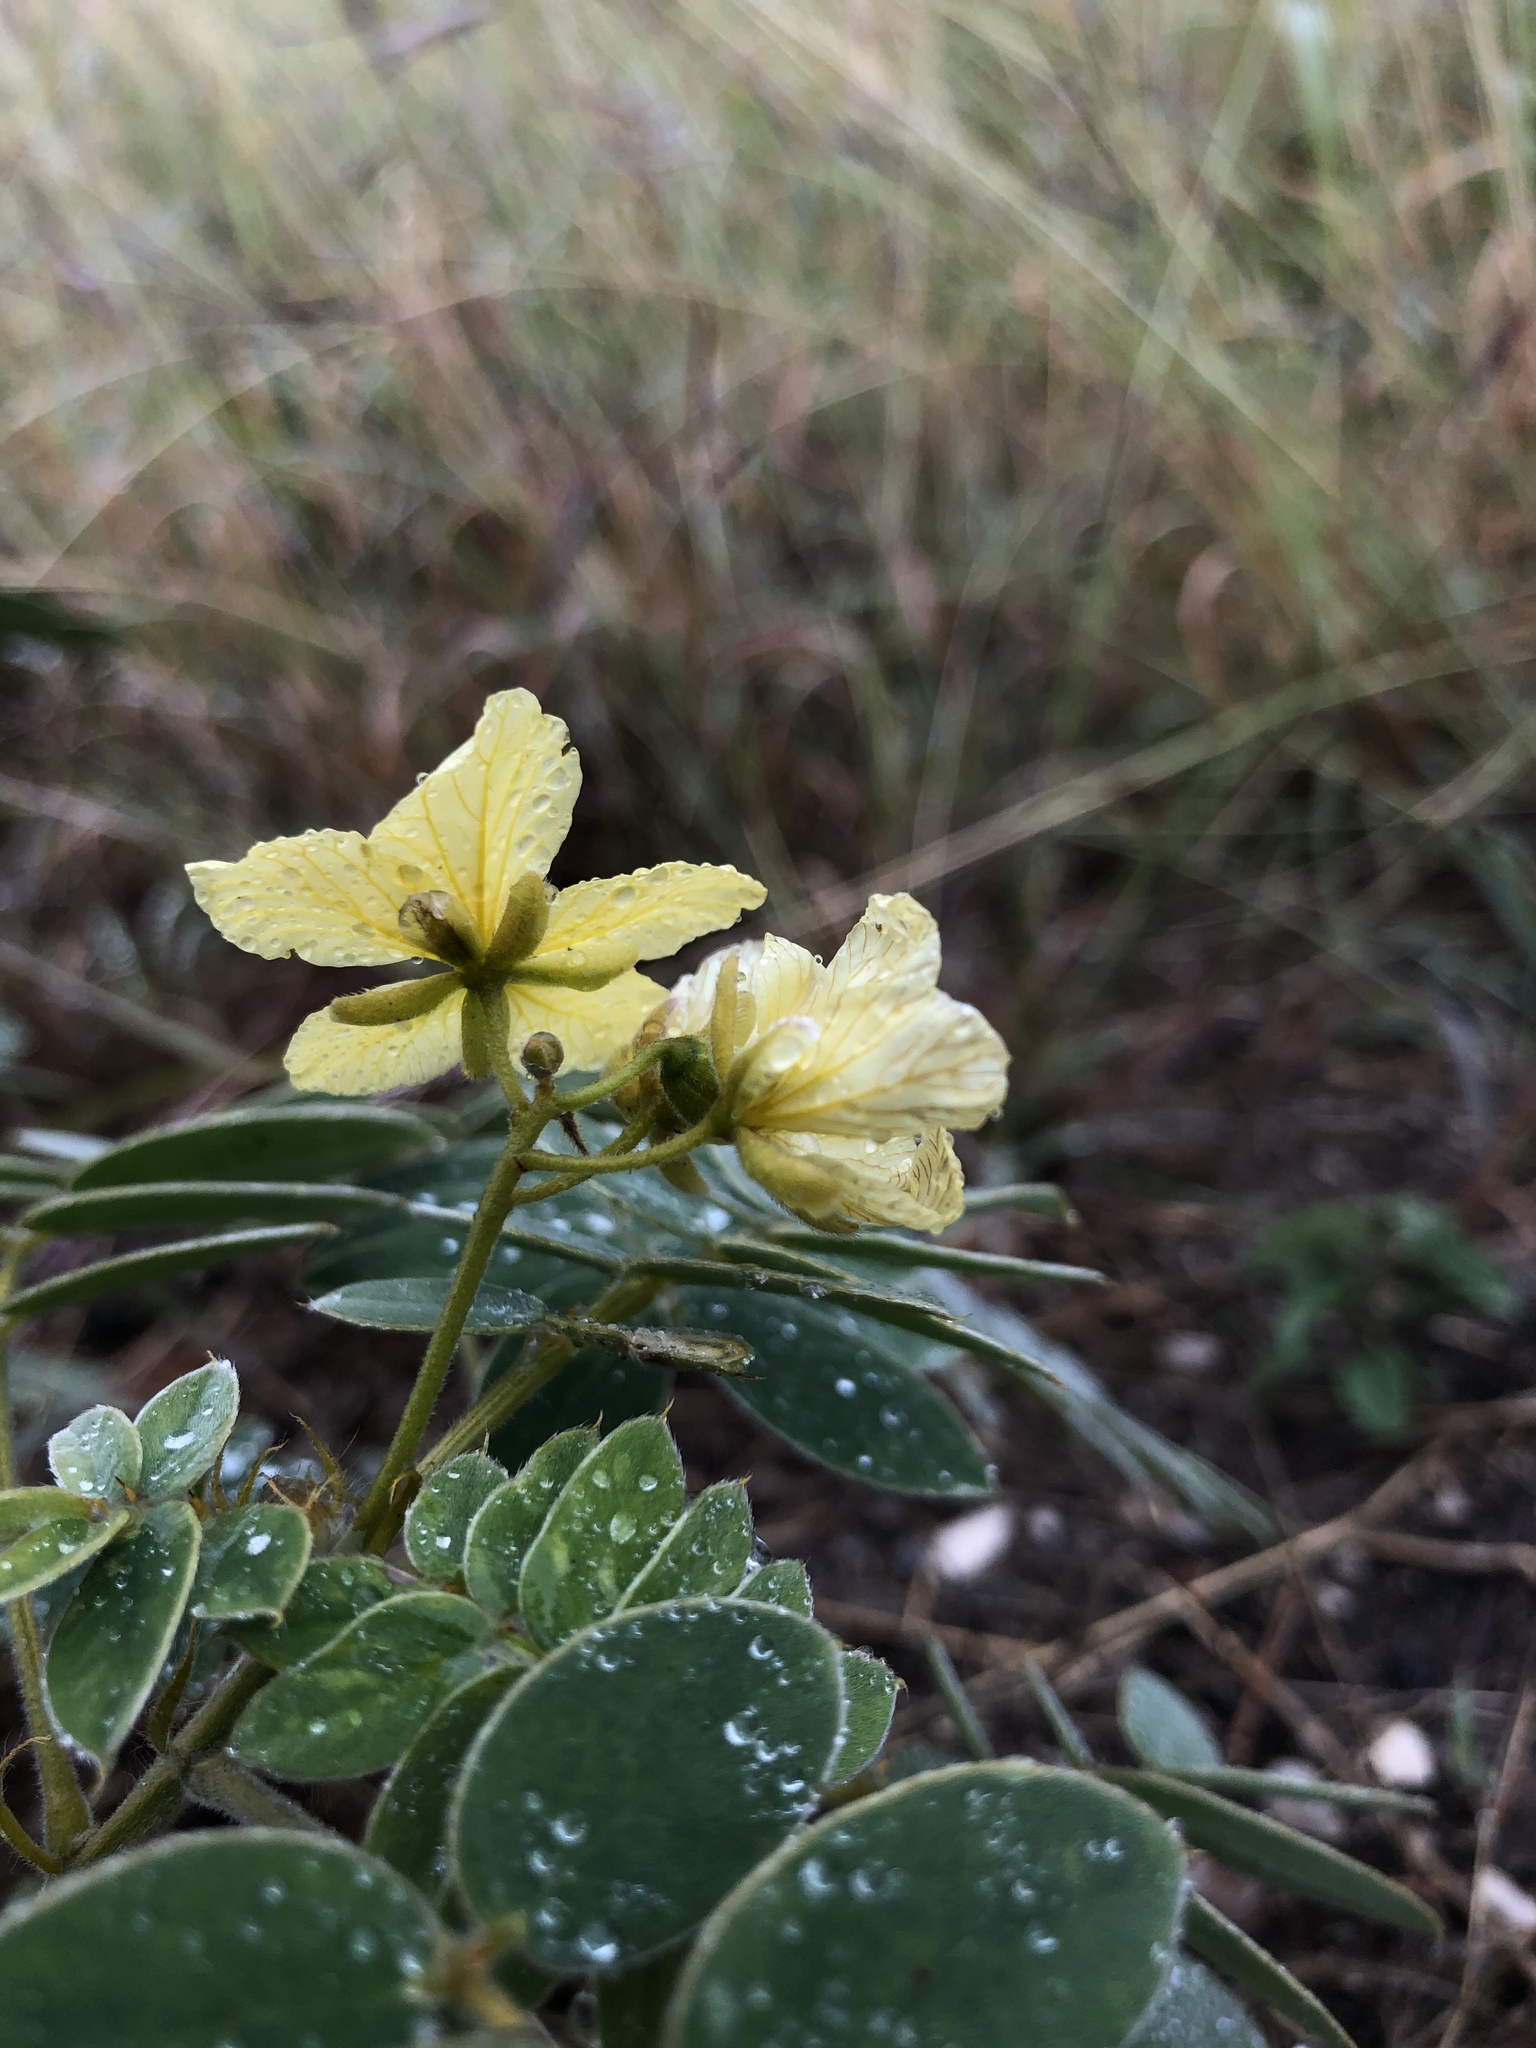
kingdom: Plantae
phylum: Tracheophyta
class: Magnoliopsida
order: Fabales
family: Fabaceae
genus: Senna
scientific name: Senna lindheimeriana
